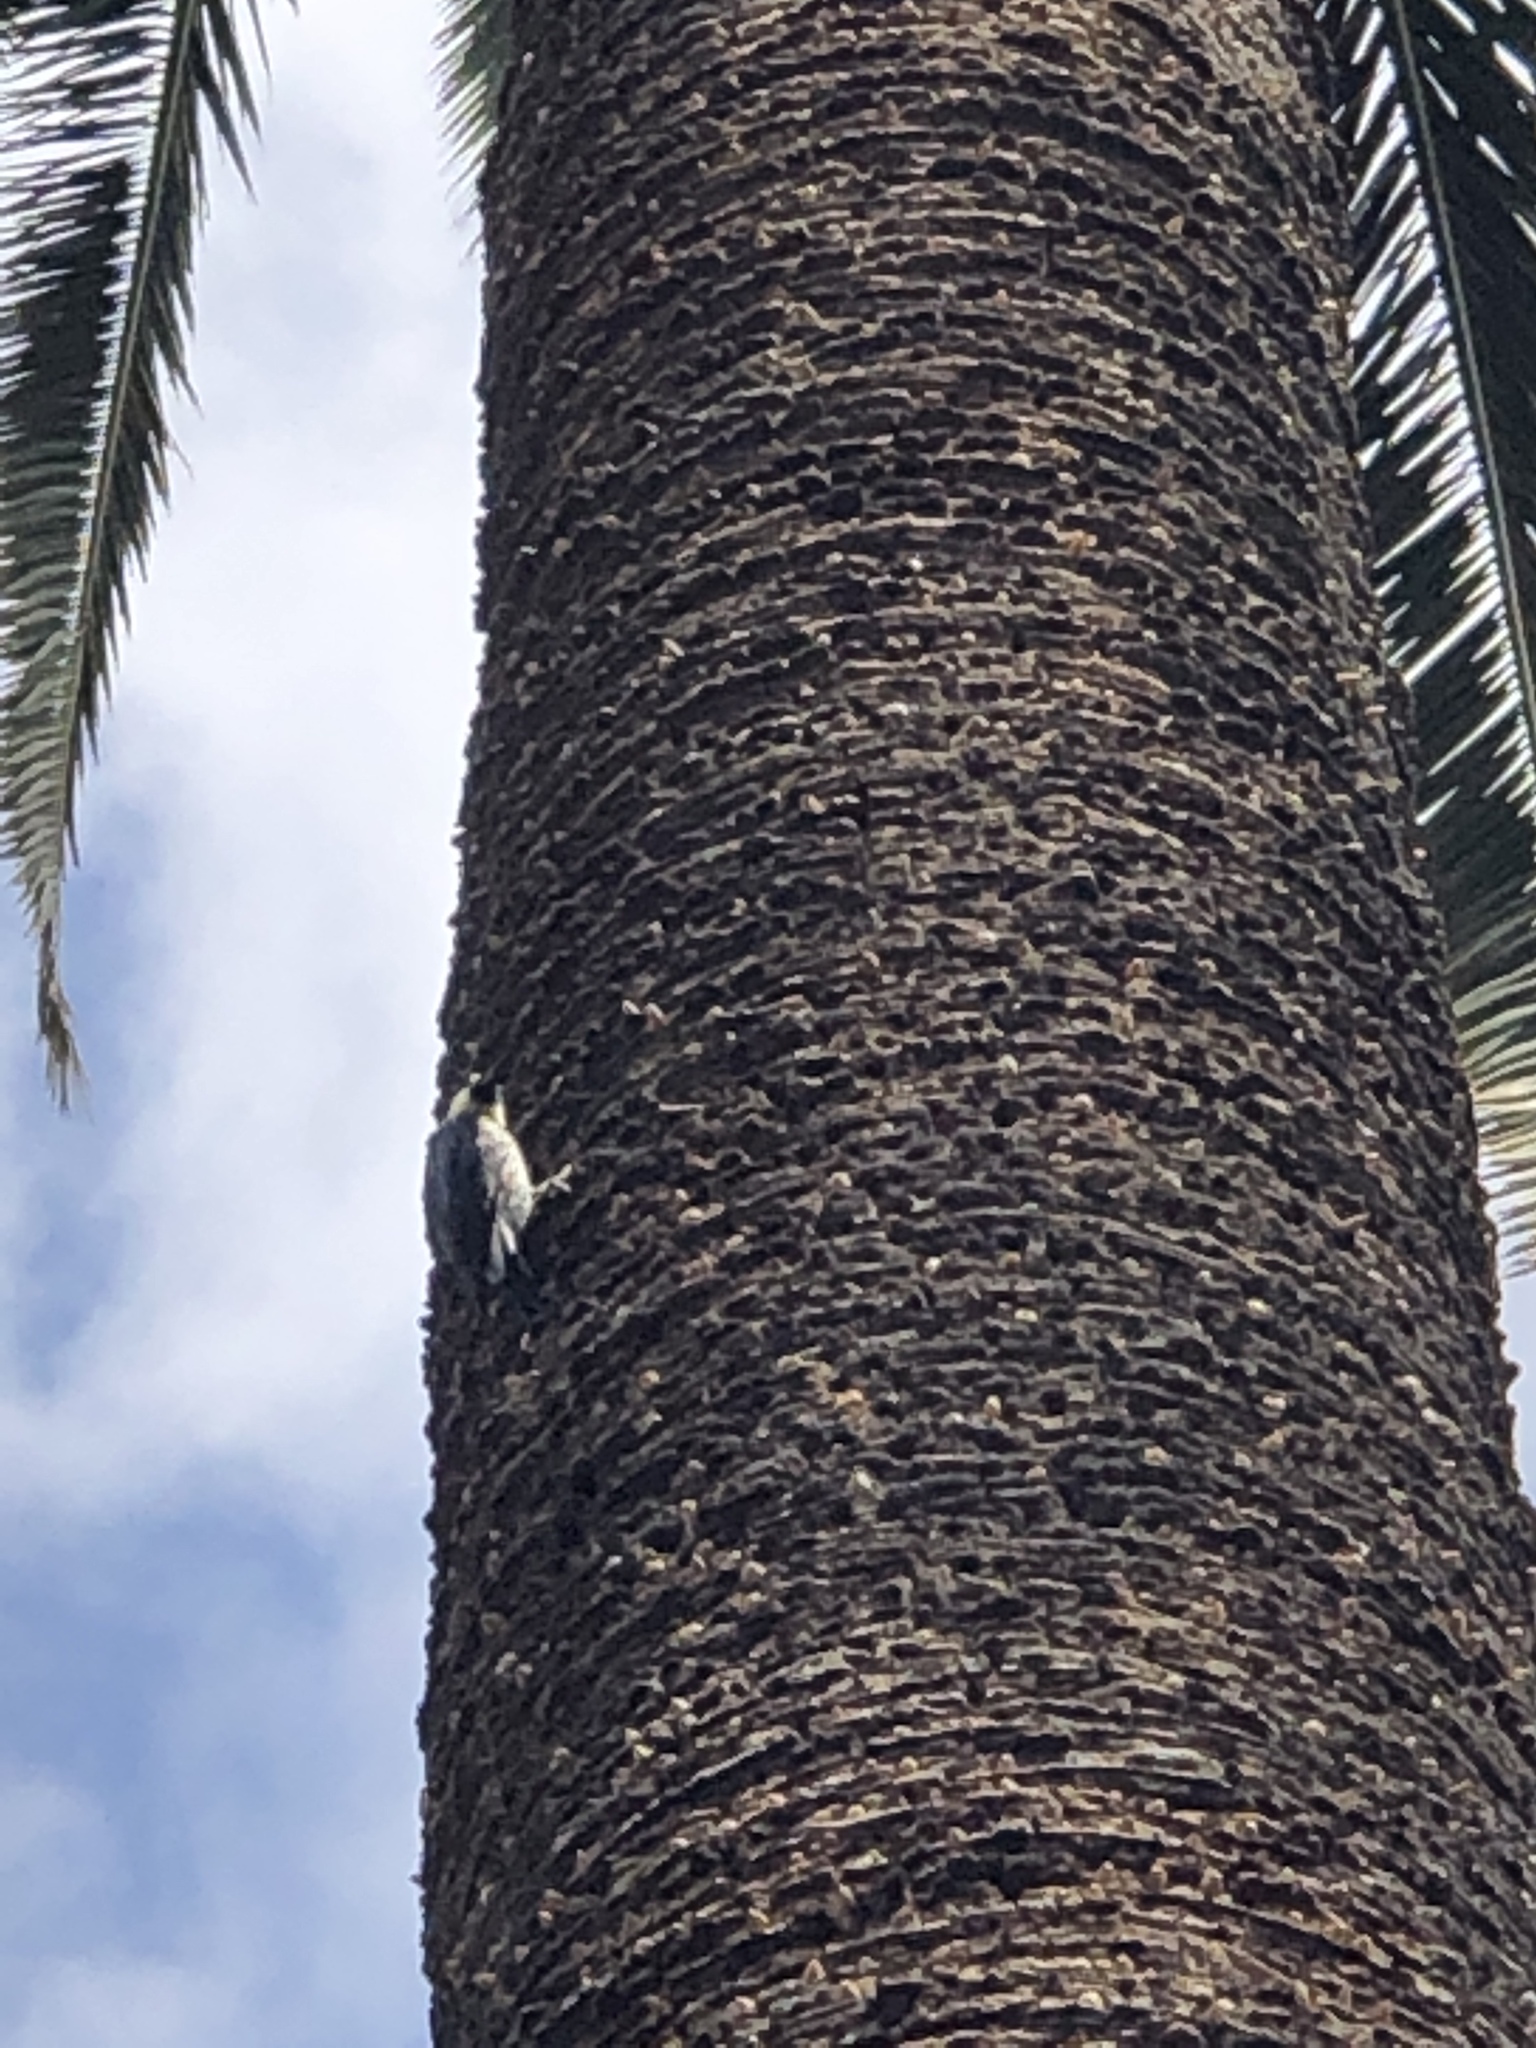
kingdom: Animalia
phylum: Chordata
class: Aves
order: Piciformes
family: Picidae
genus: Melanerpes
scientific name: Melanerpes formicivorus
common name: Acorn woodpecker
